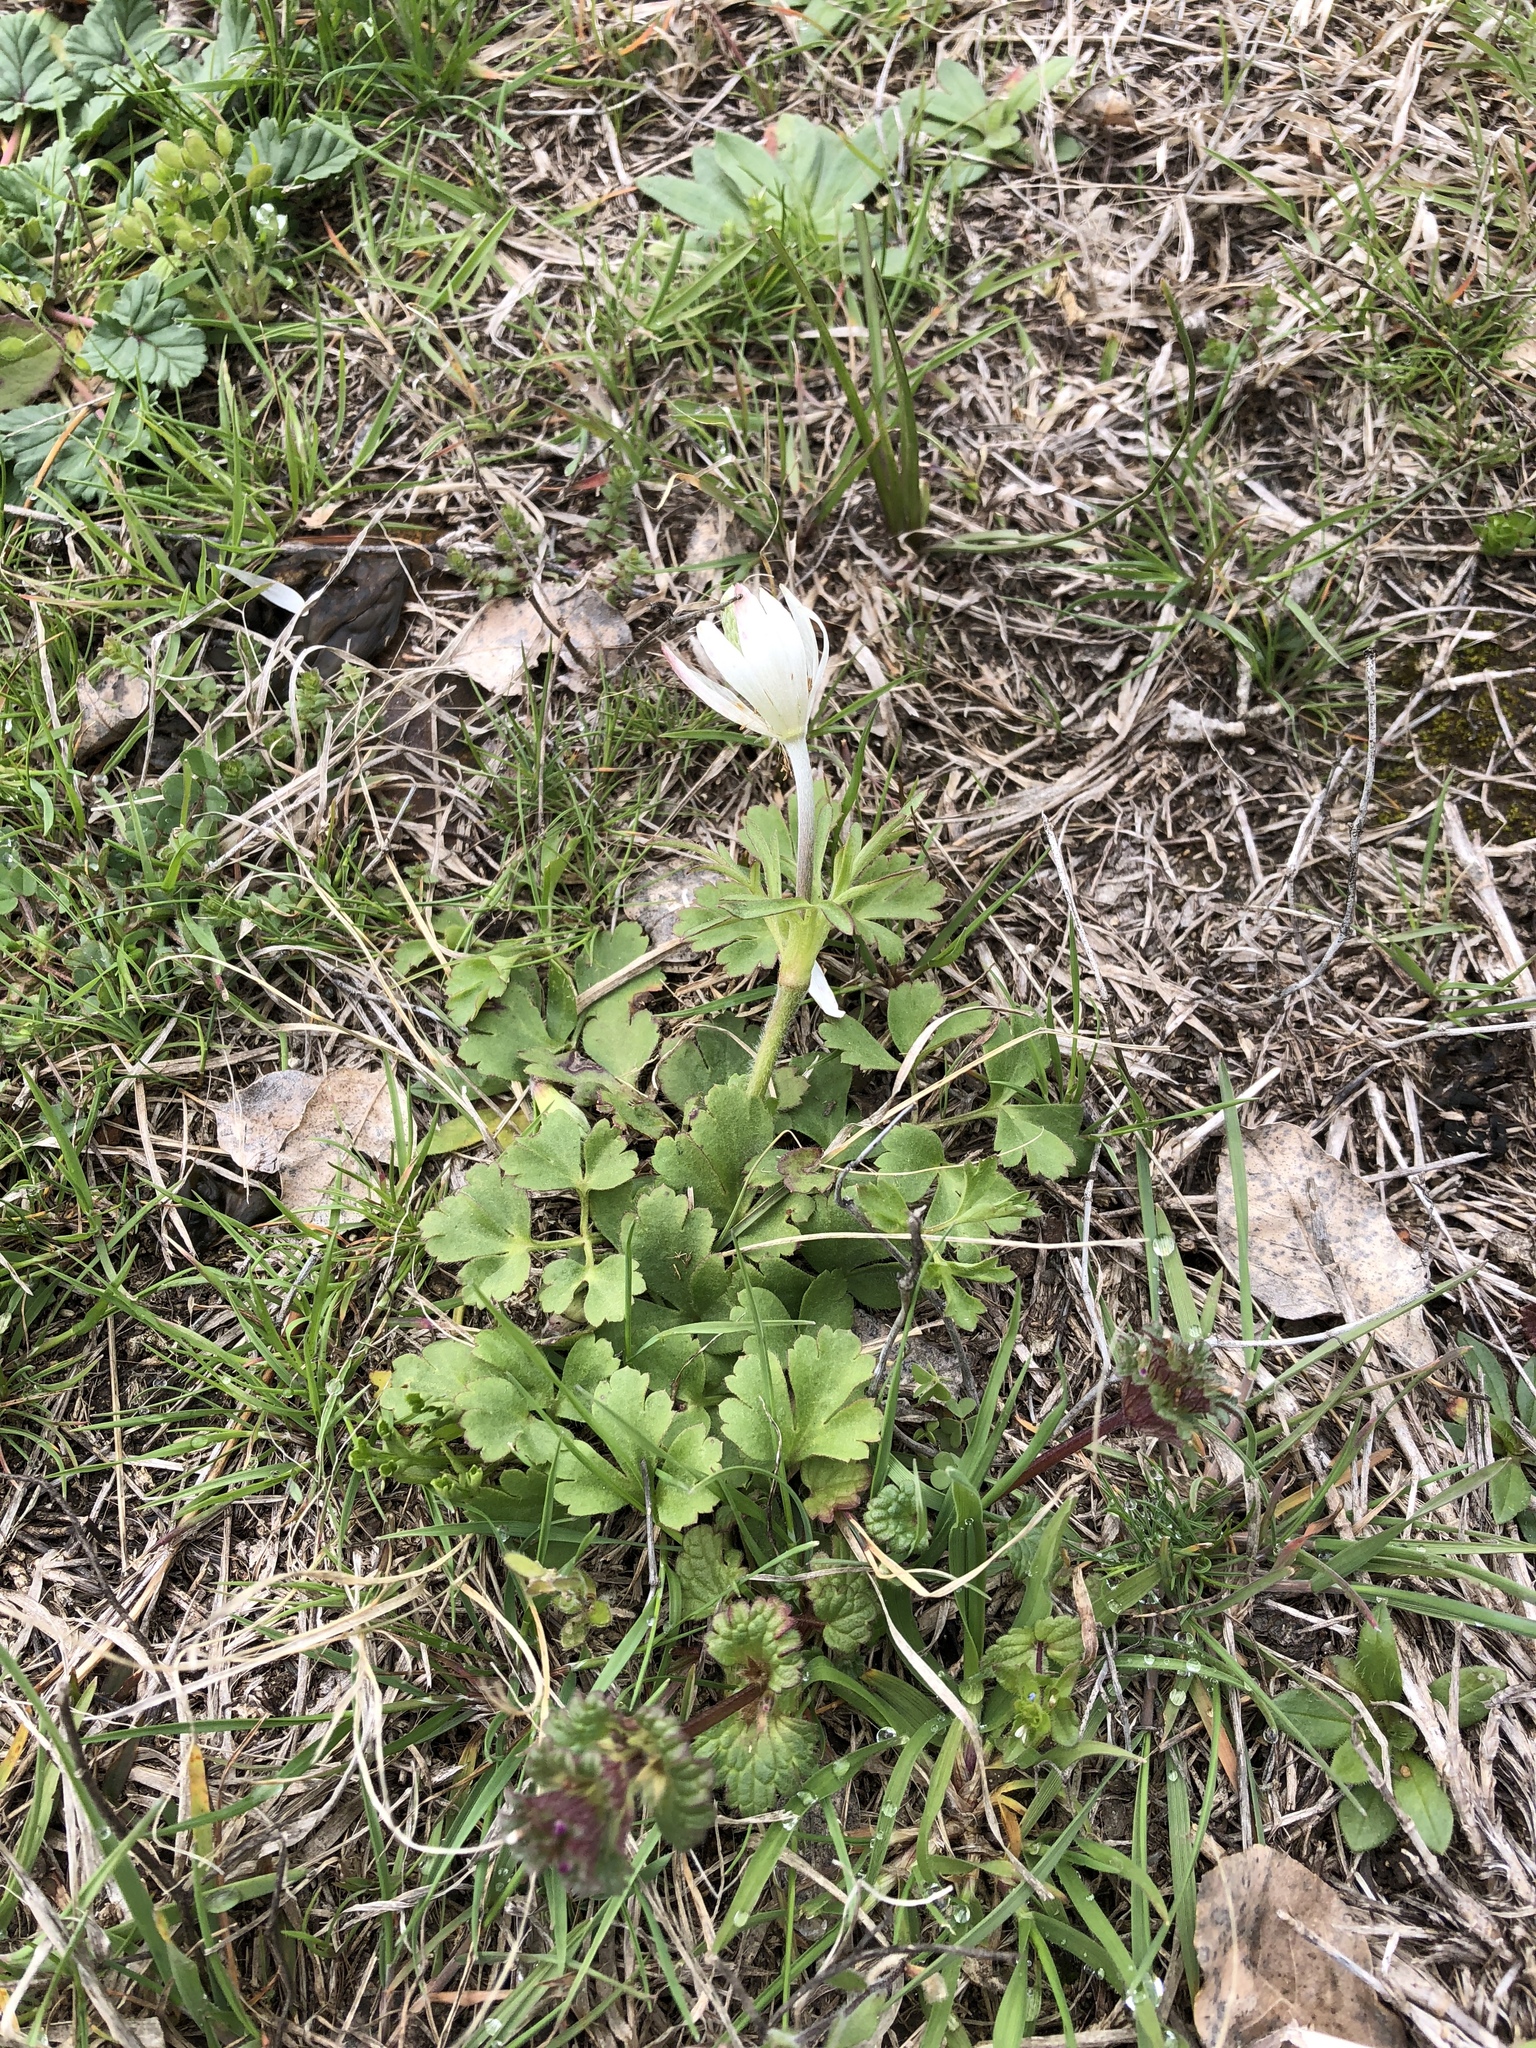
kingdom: Plantae
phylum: Tracheophyta
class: Magnoliopsida
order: Ranunculales
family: Ranunculaceae
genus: Anemone
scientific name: Anemone berlandieri
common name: Ten-petal anemone
